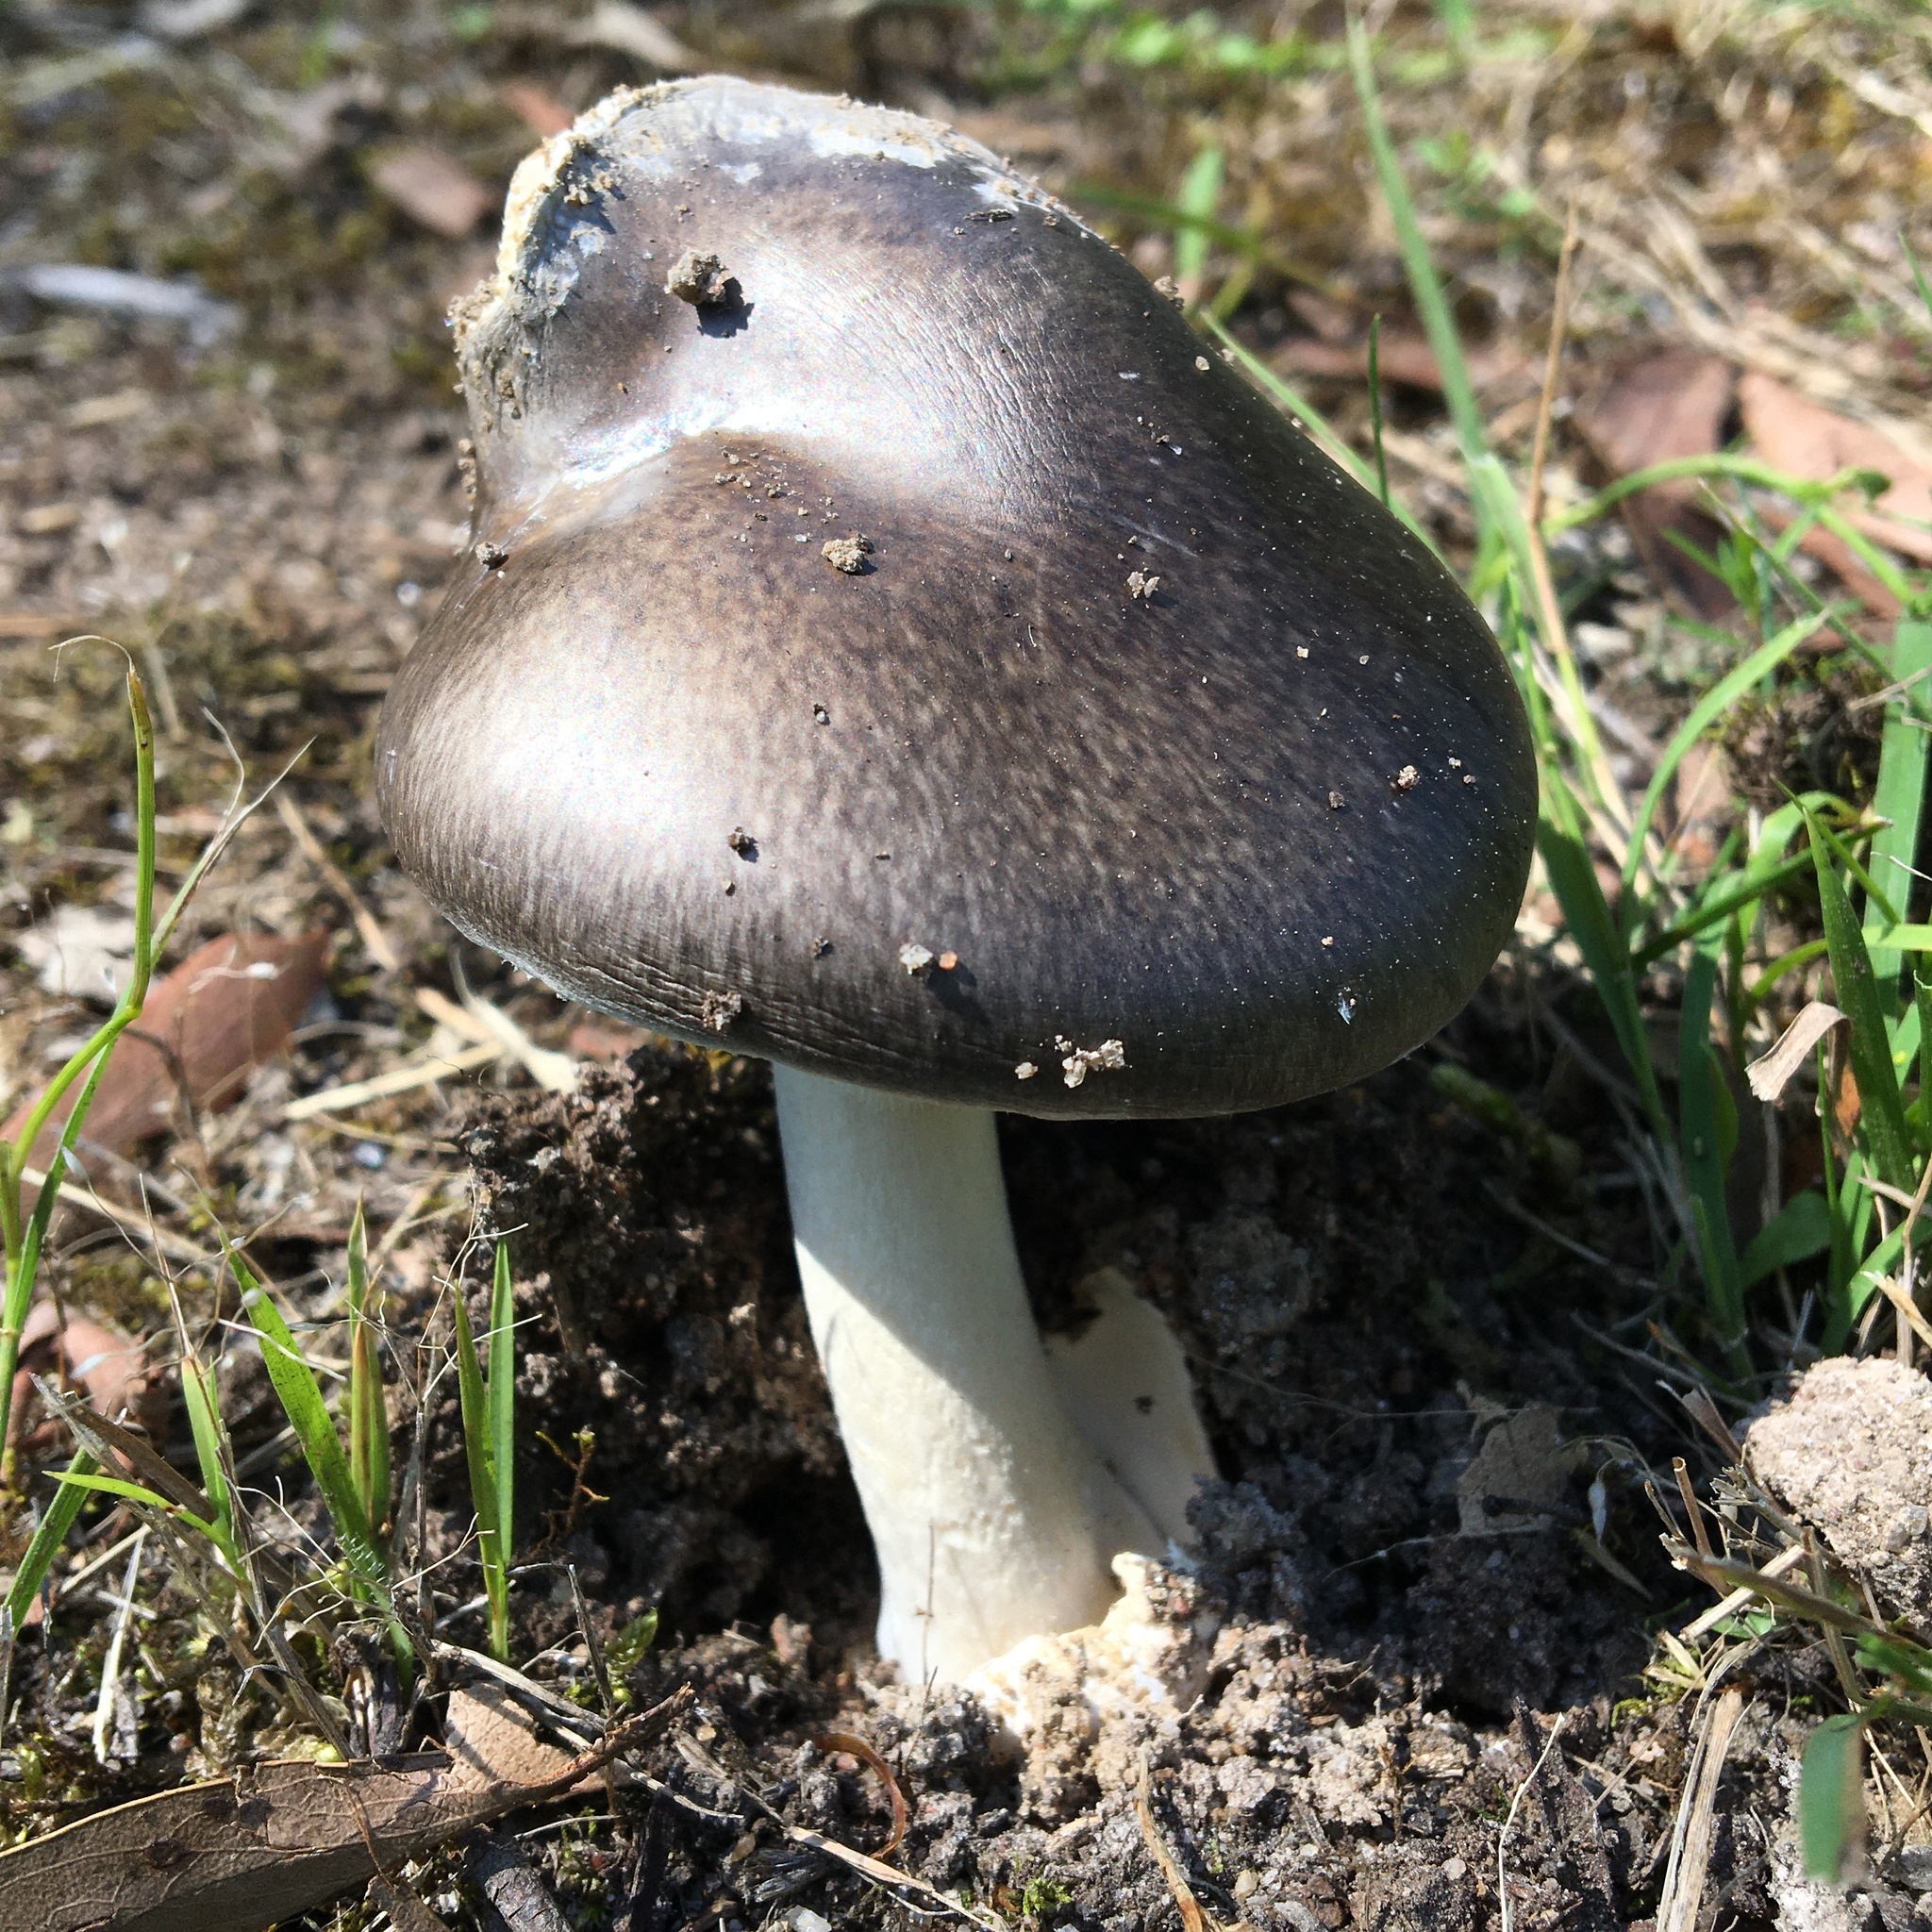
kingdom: Fungi
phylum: Basidiomycota
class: Agaricomycetes
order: Agaricales
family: Amanitaceae
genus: Amanita
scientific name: Amanita marmorata
